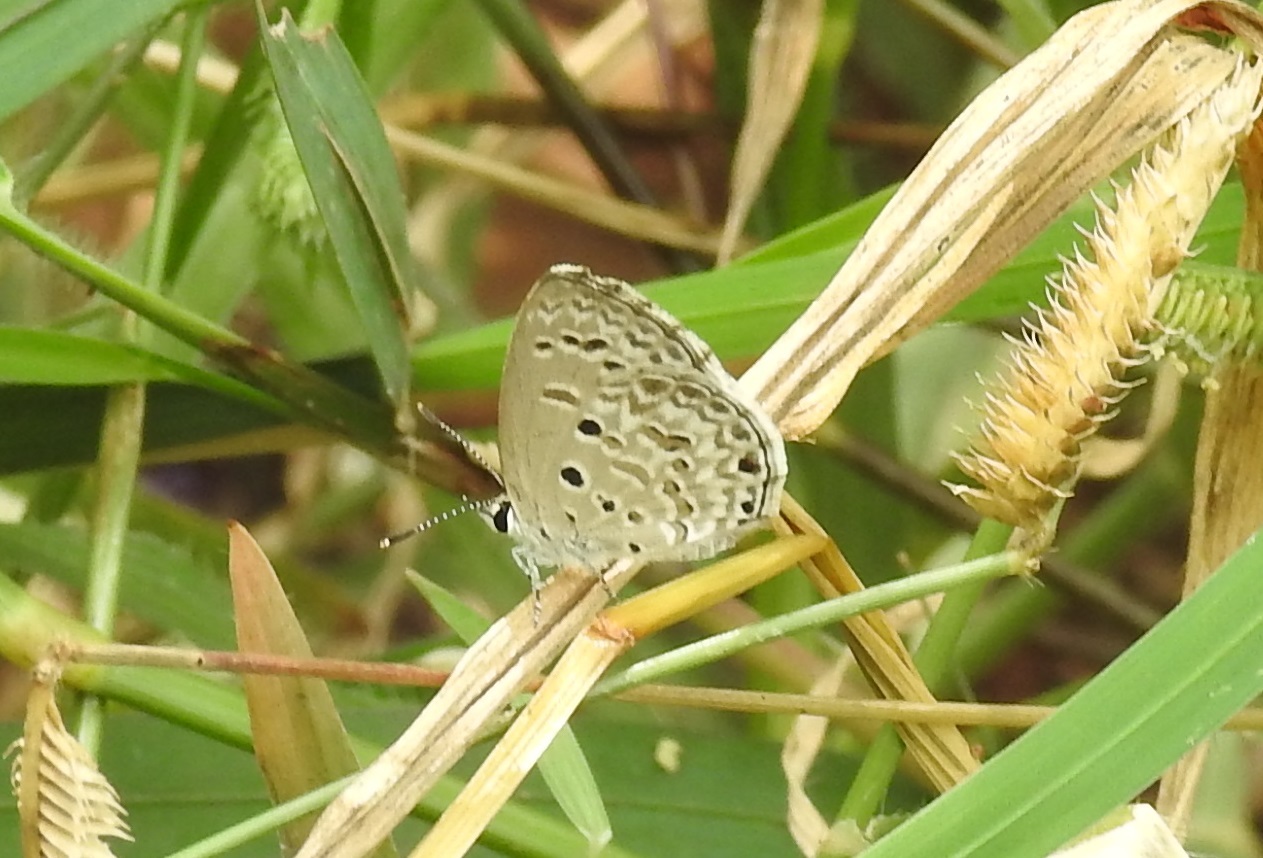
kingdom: Animalia
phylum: Arthropoda
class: Insecta
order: Lepidoptera
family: Lycaenidae
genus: Chilades
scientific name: Chilades laius
